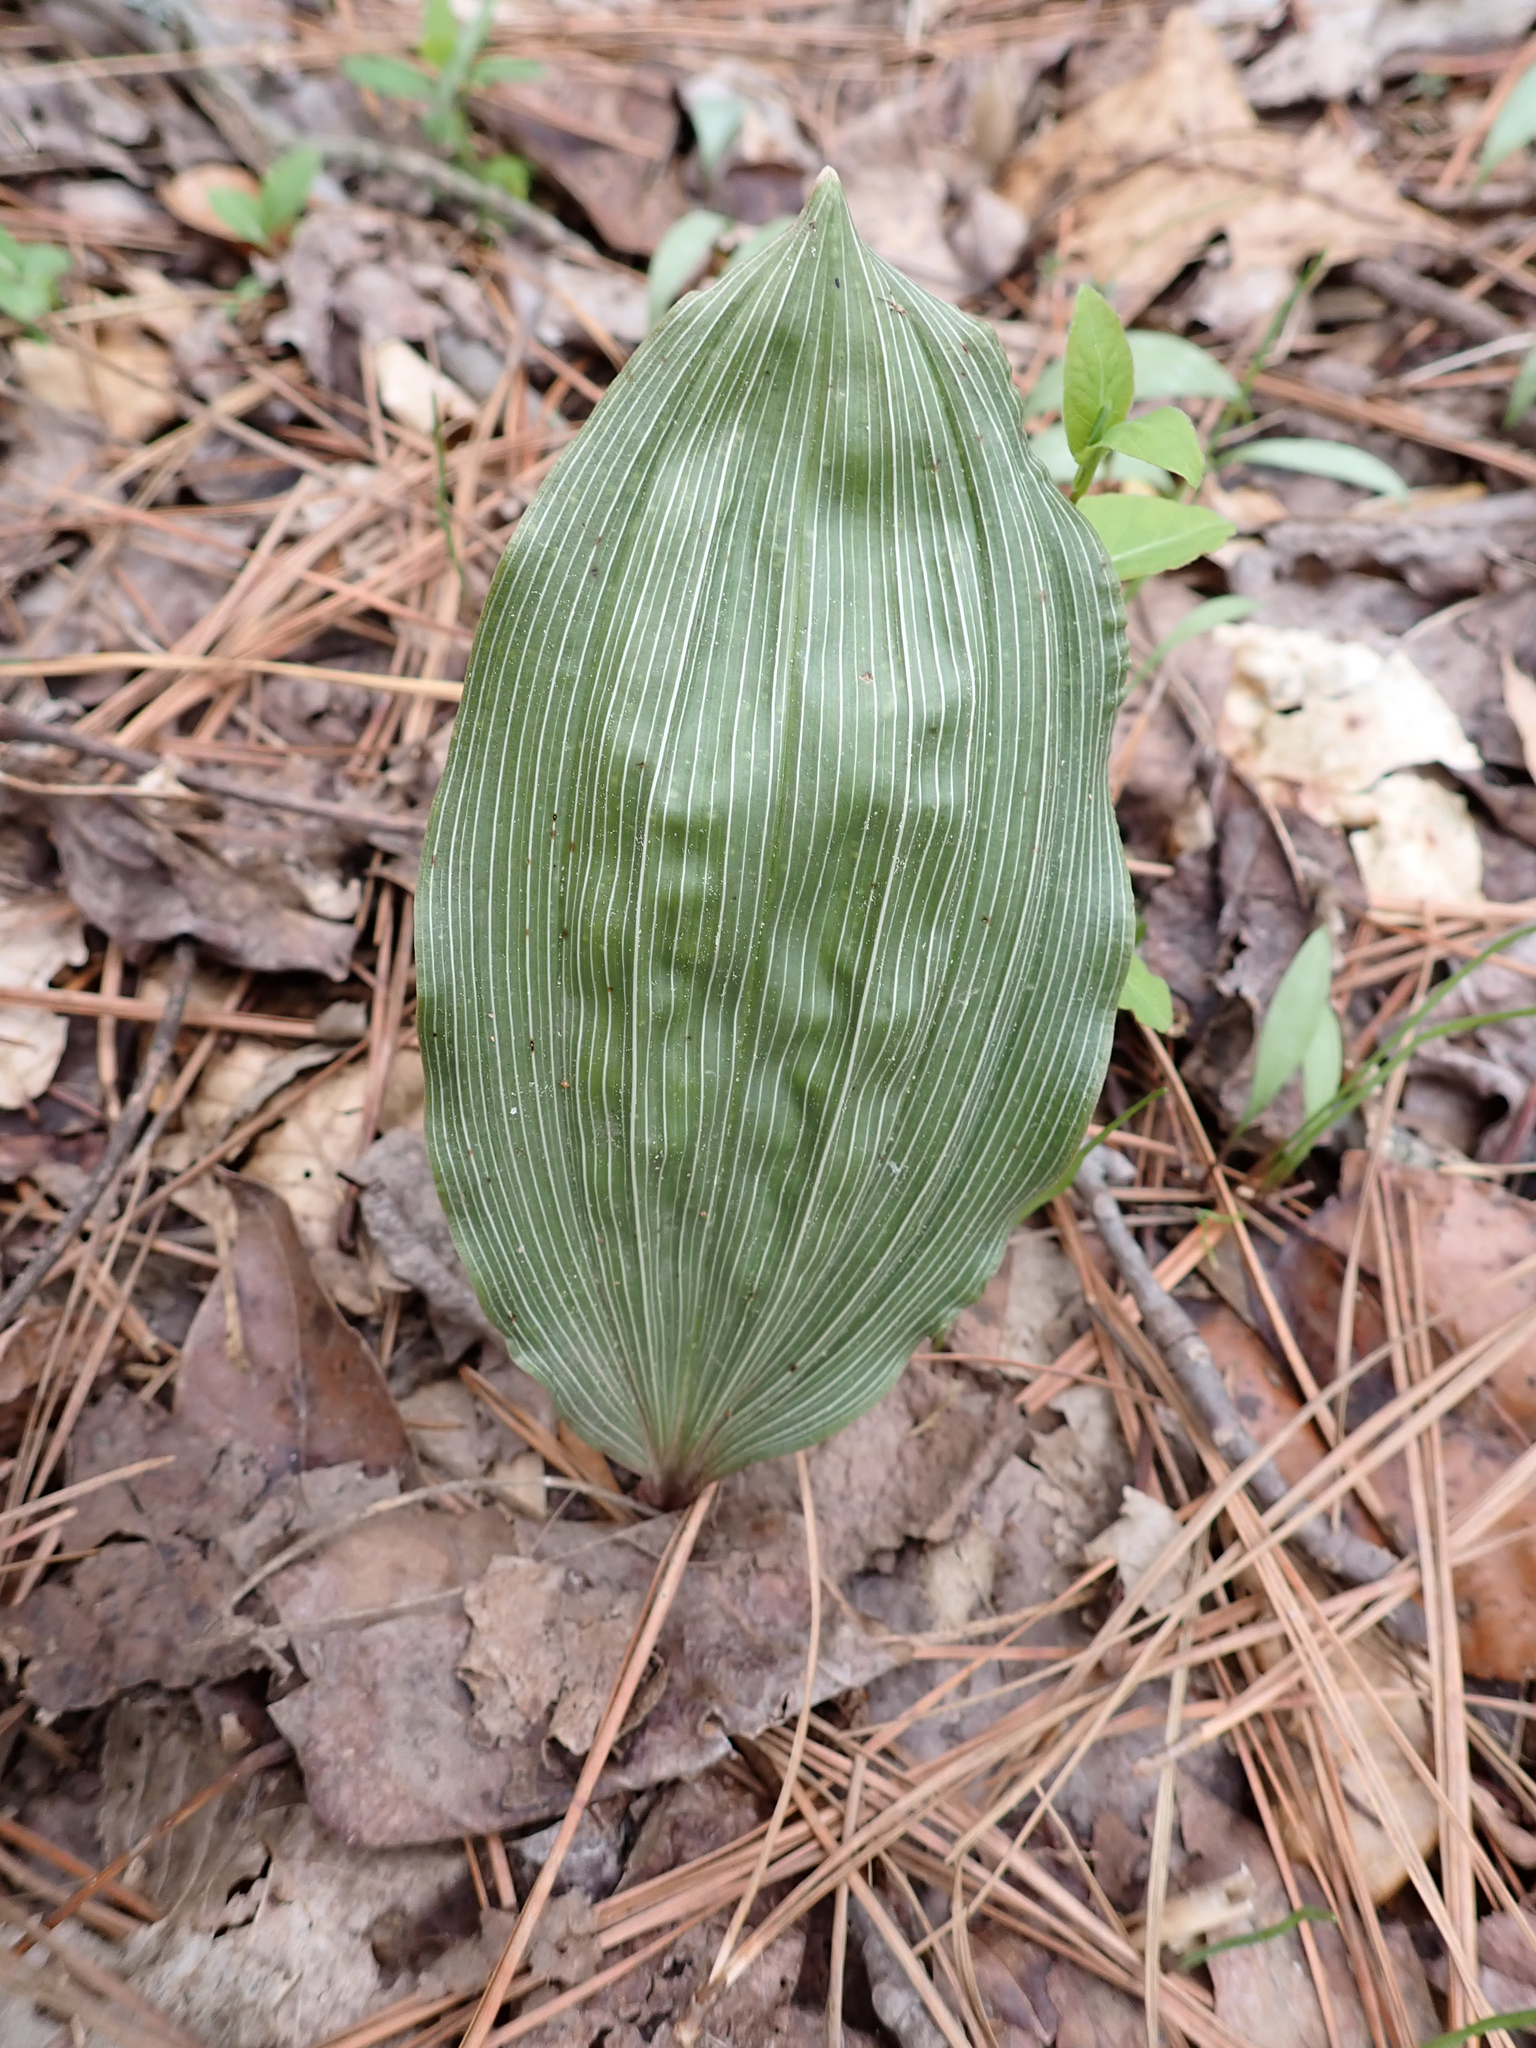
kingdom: Plantae
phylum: Tracheophyta
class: Liliopsida
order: Asparagales
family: Orchidaceae
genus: Aplectrum
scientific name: Aplectrum hyemale
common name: Adam-and-eve
